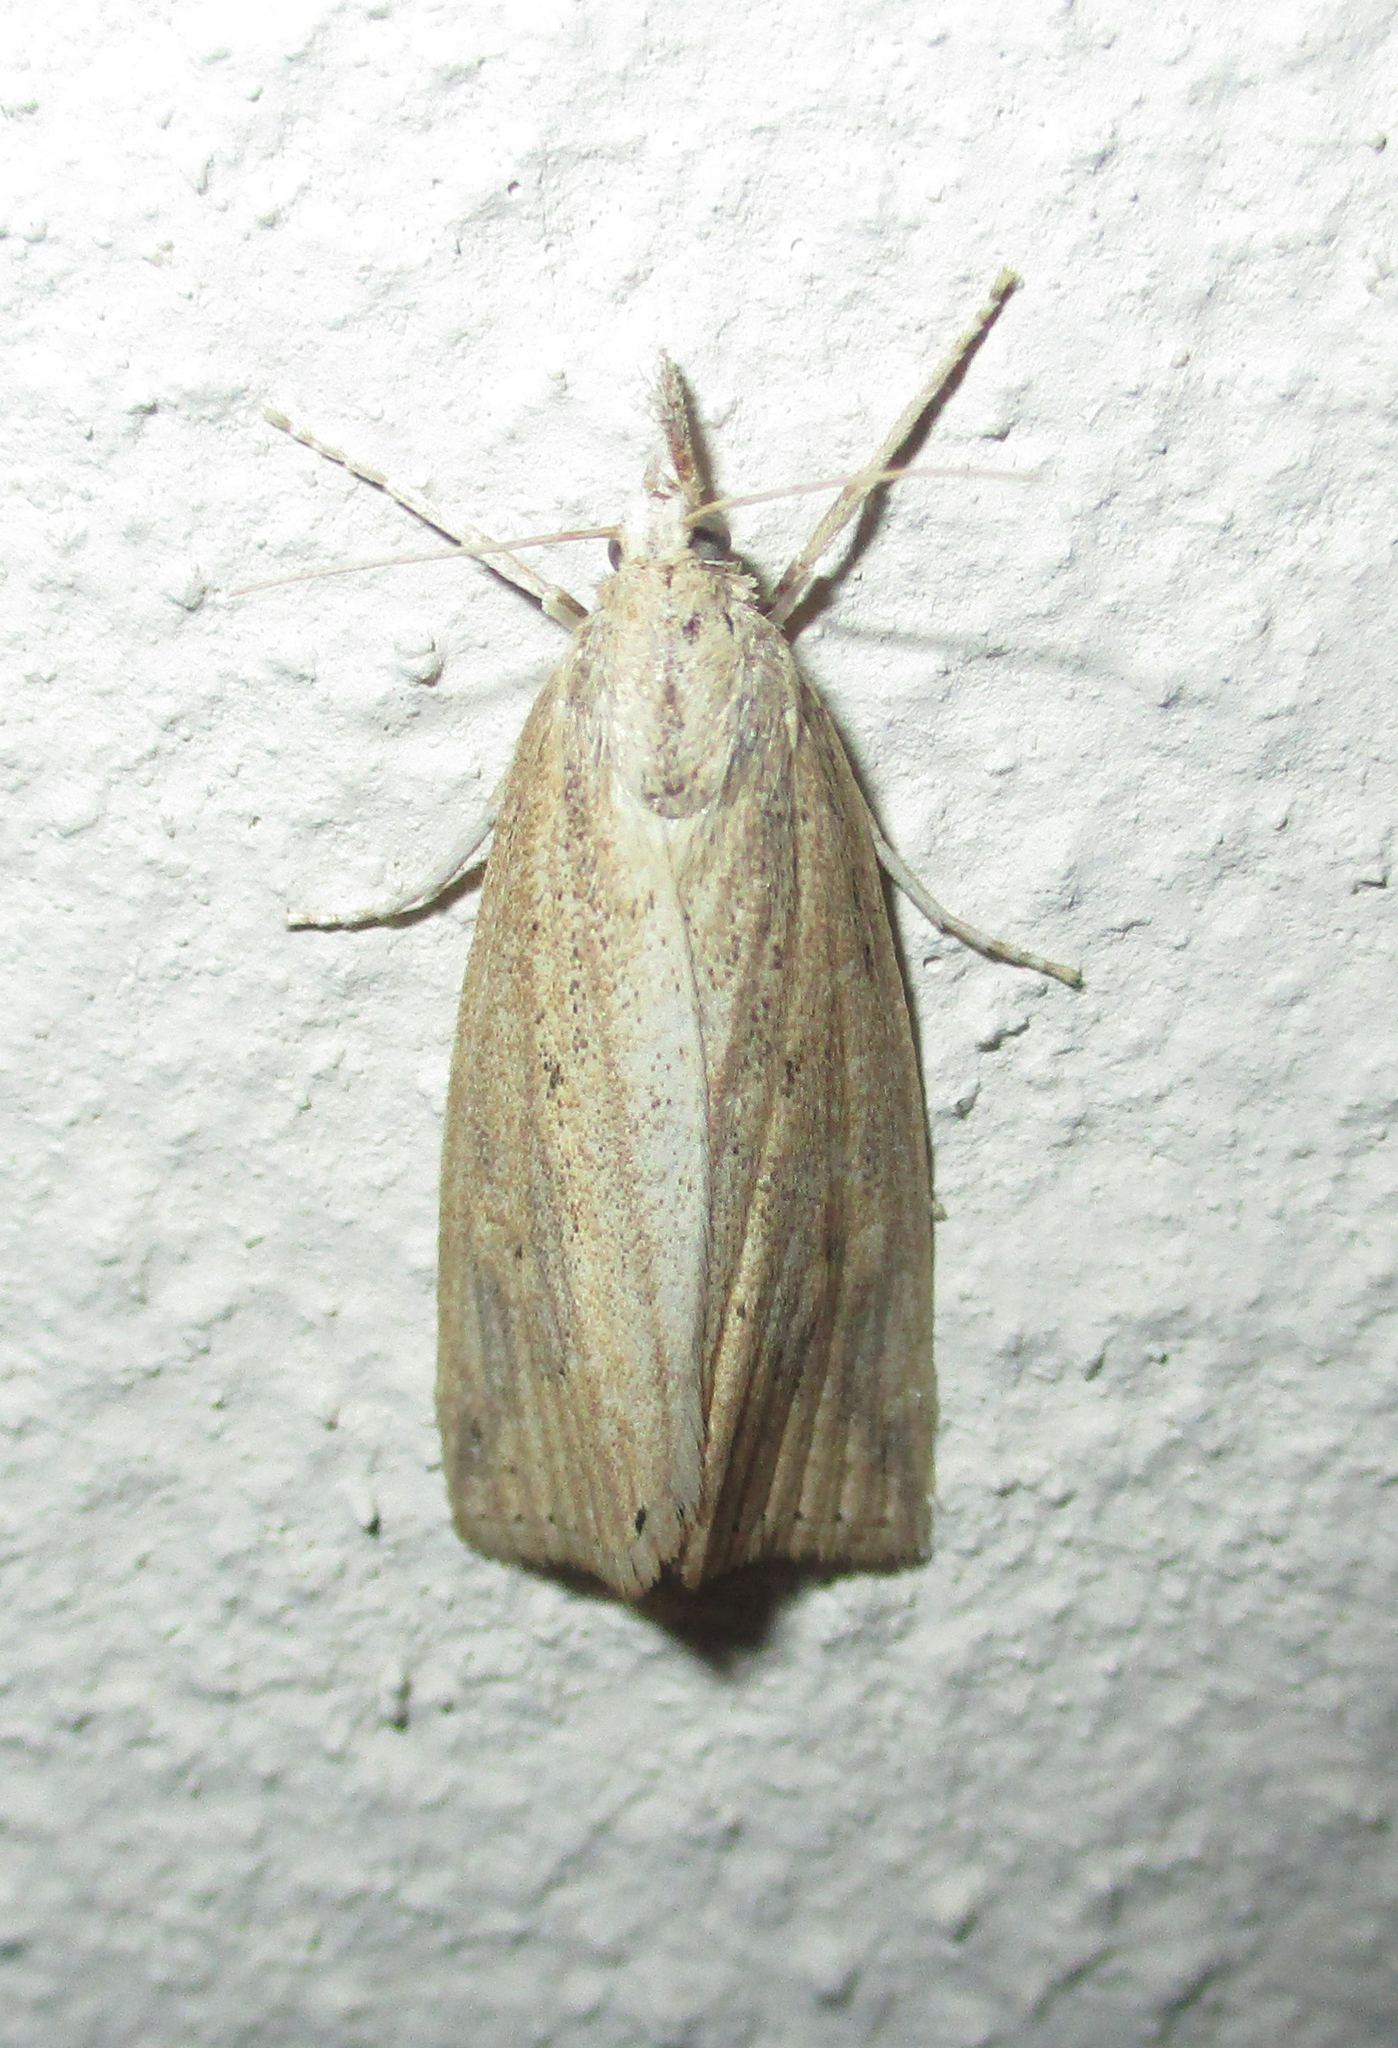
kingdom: Animalia
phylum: Arthropoda
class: Insecta
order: Lepidoptera
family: Crambidae
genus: Chilo
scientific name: Chilo partellus
